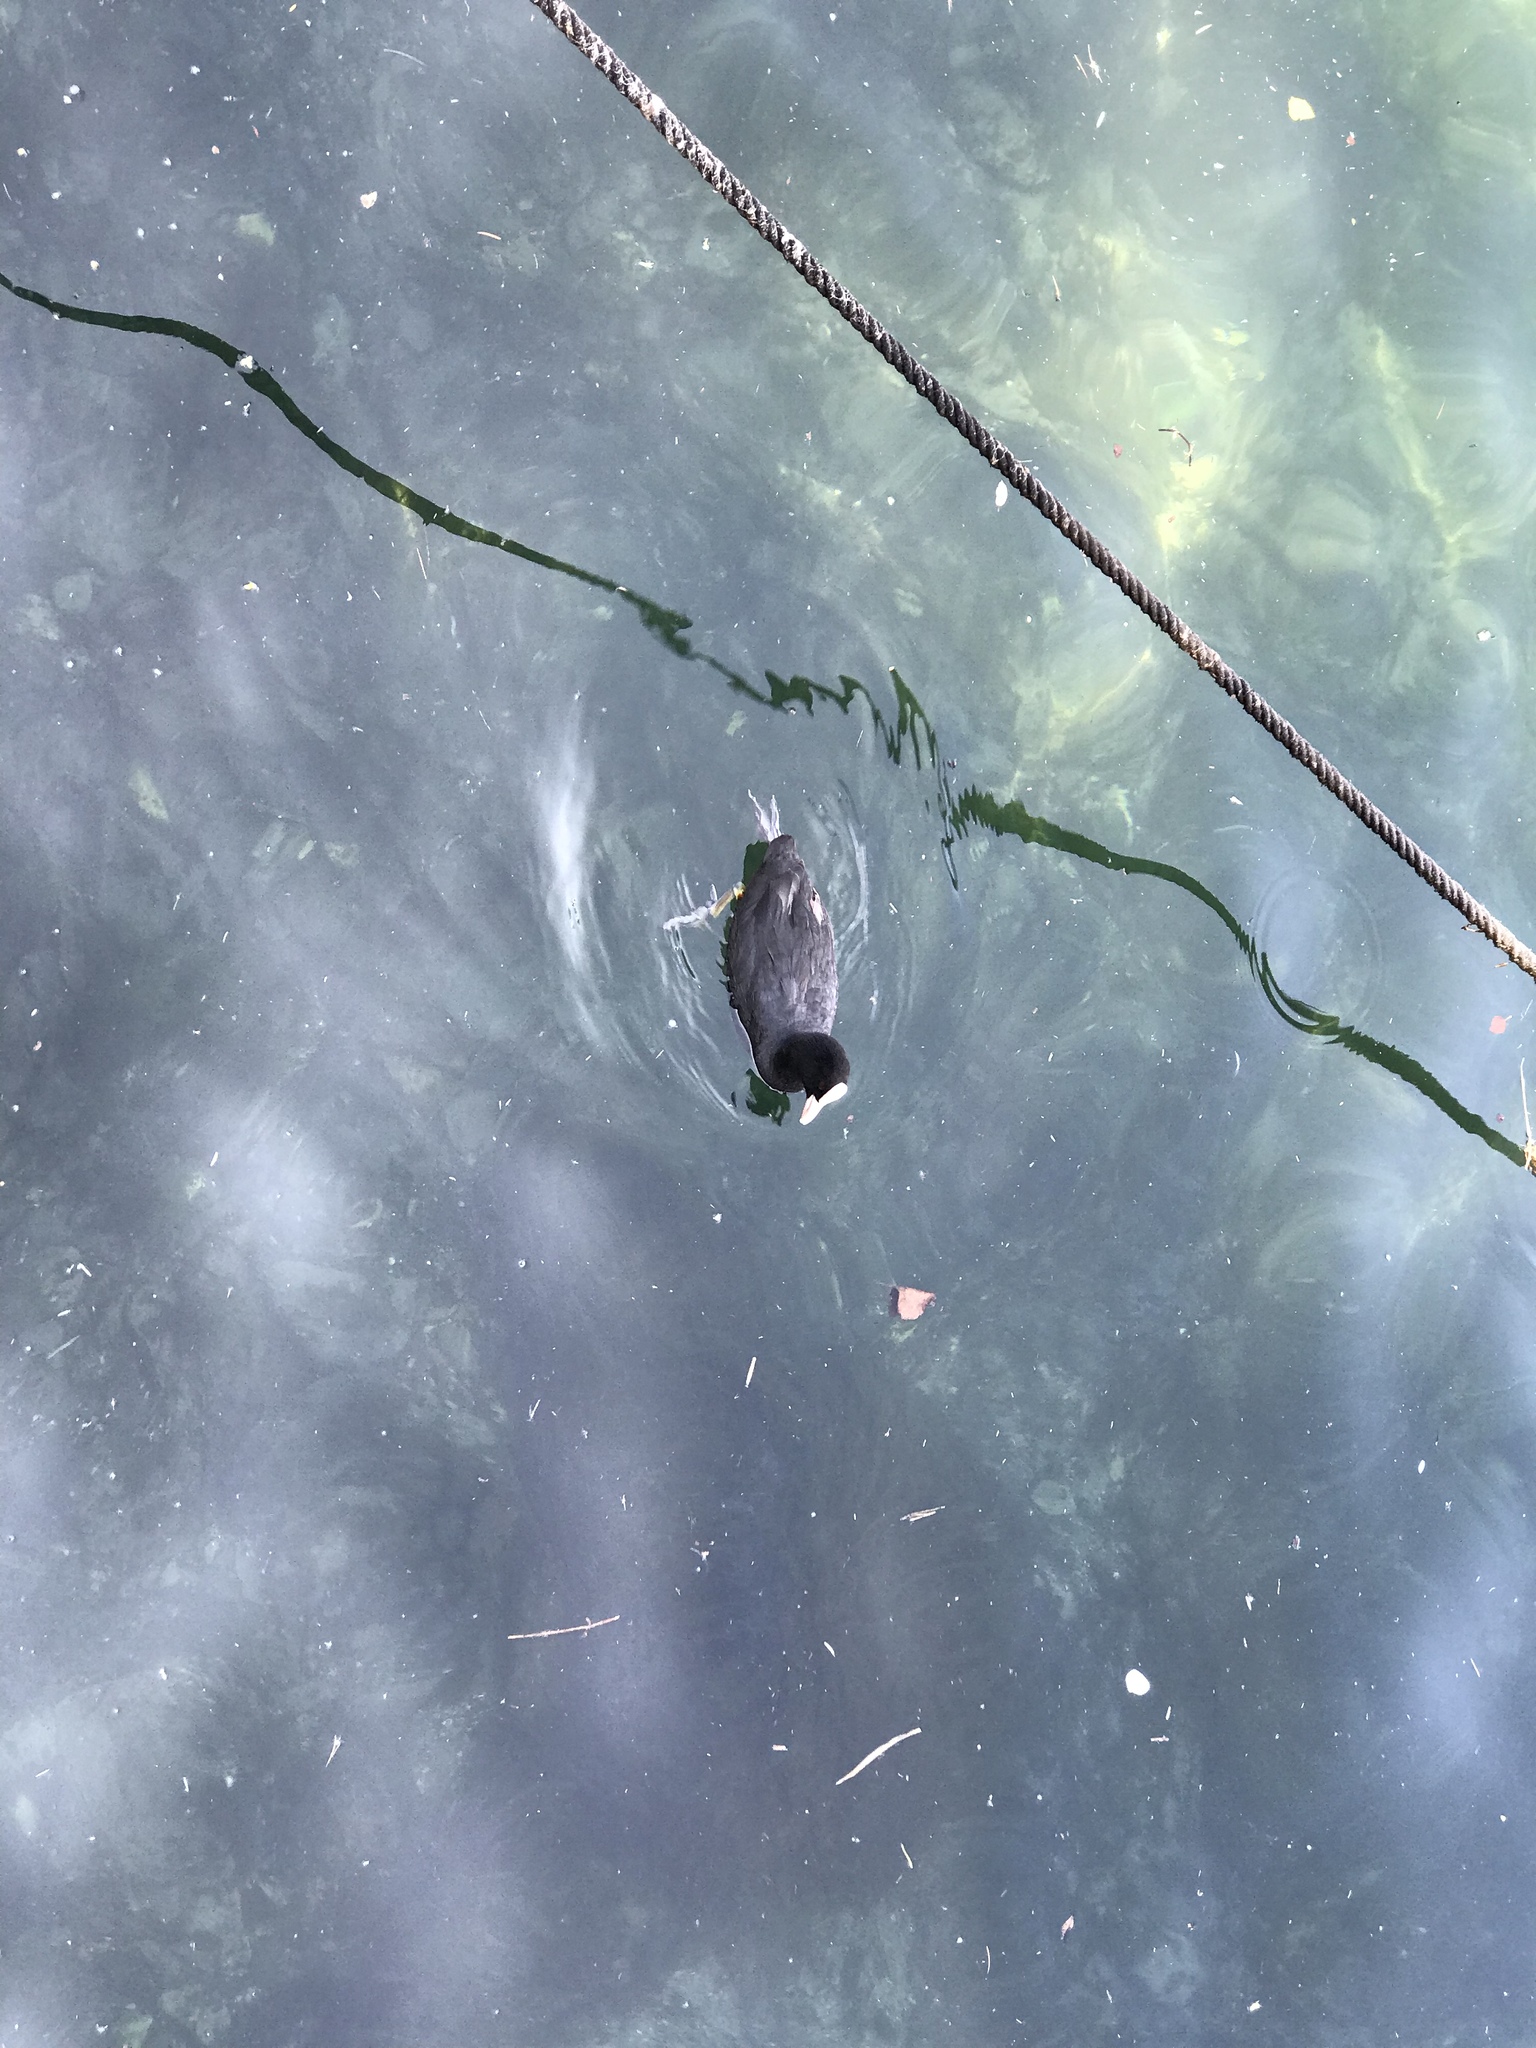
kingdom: Animalia
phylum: Chordata
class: Aves
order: Gruiformes
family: Rallidae
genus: Fulica
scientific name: Fulica atra
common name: Eurasian coot
